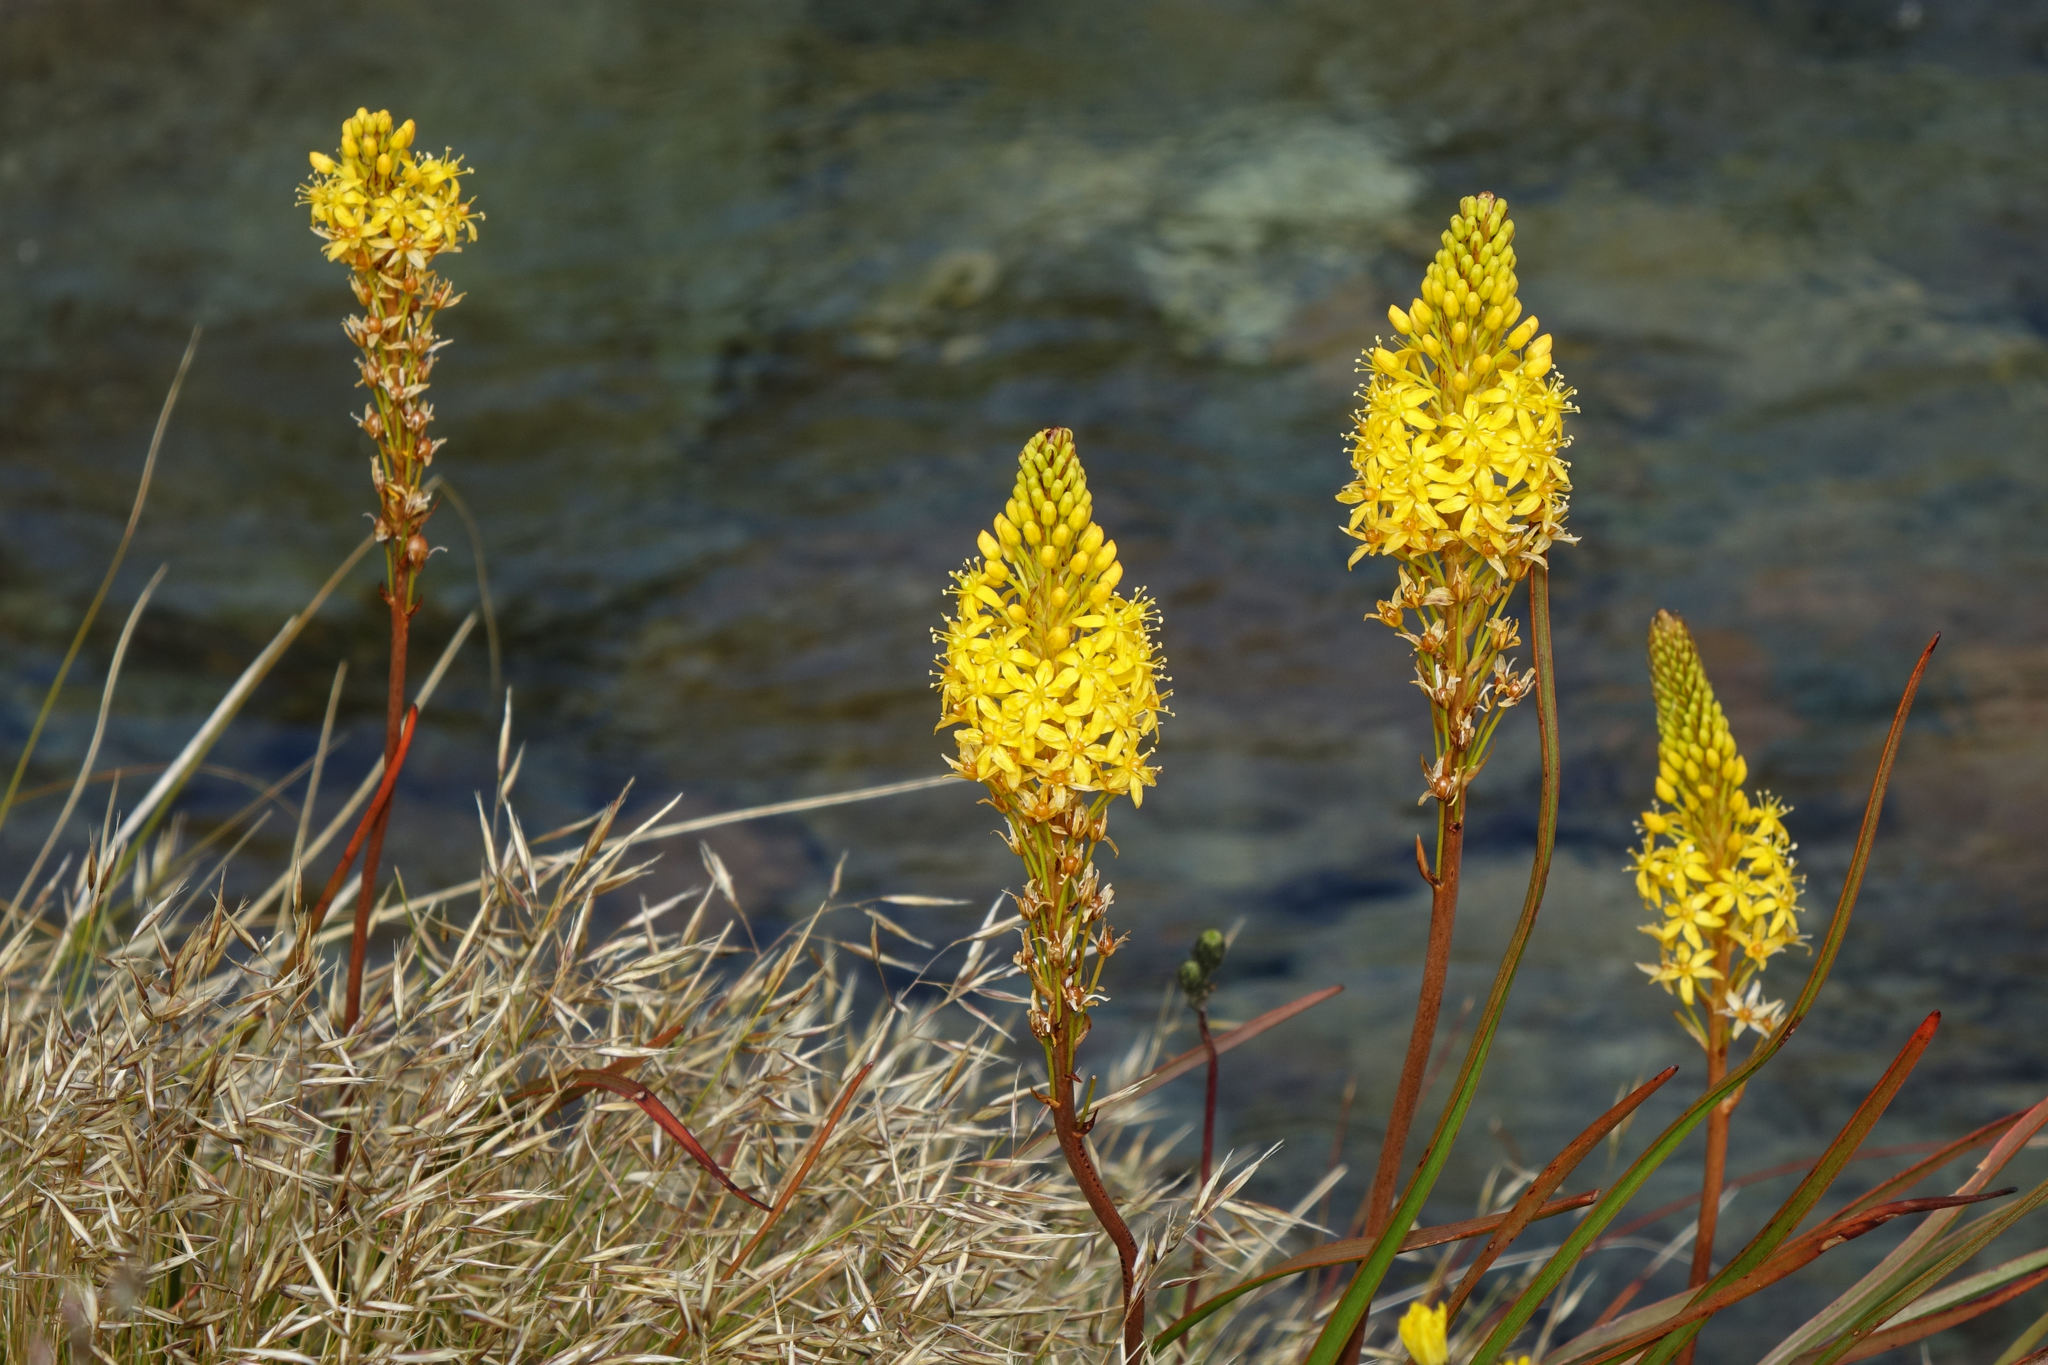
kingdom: Plantae
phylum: Tracheophyta
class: Liliopsida
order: Asparagales
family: Asphodelaceae
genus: Bulbinella
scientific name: Bulbinella angustifolia
